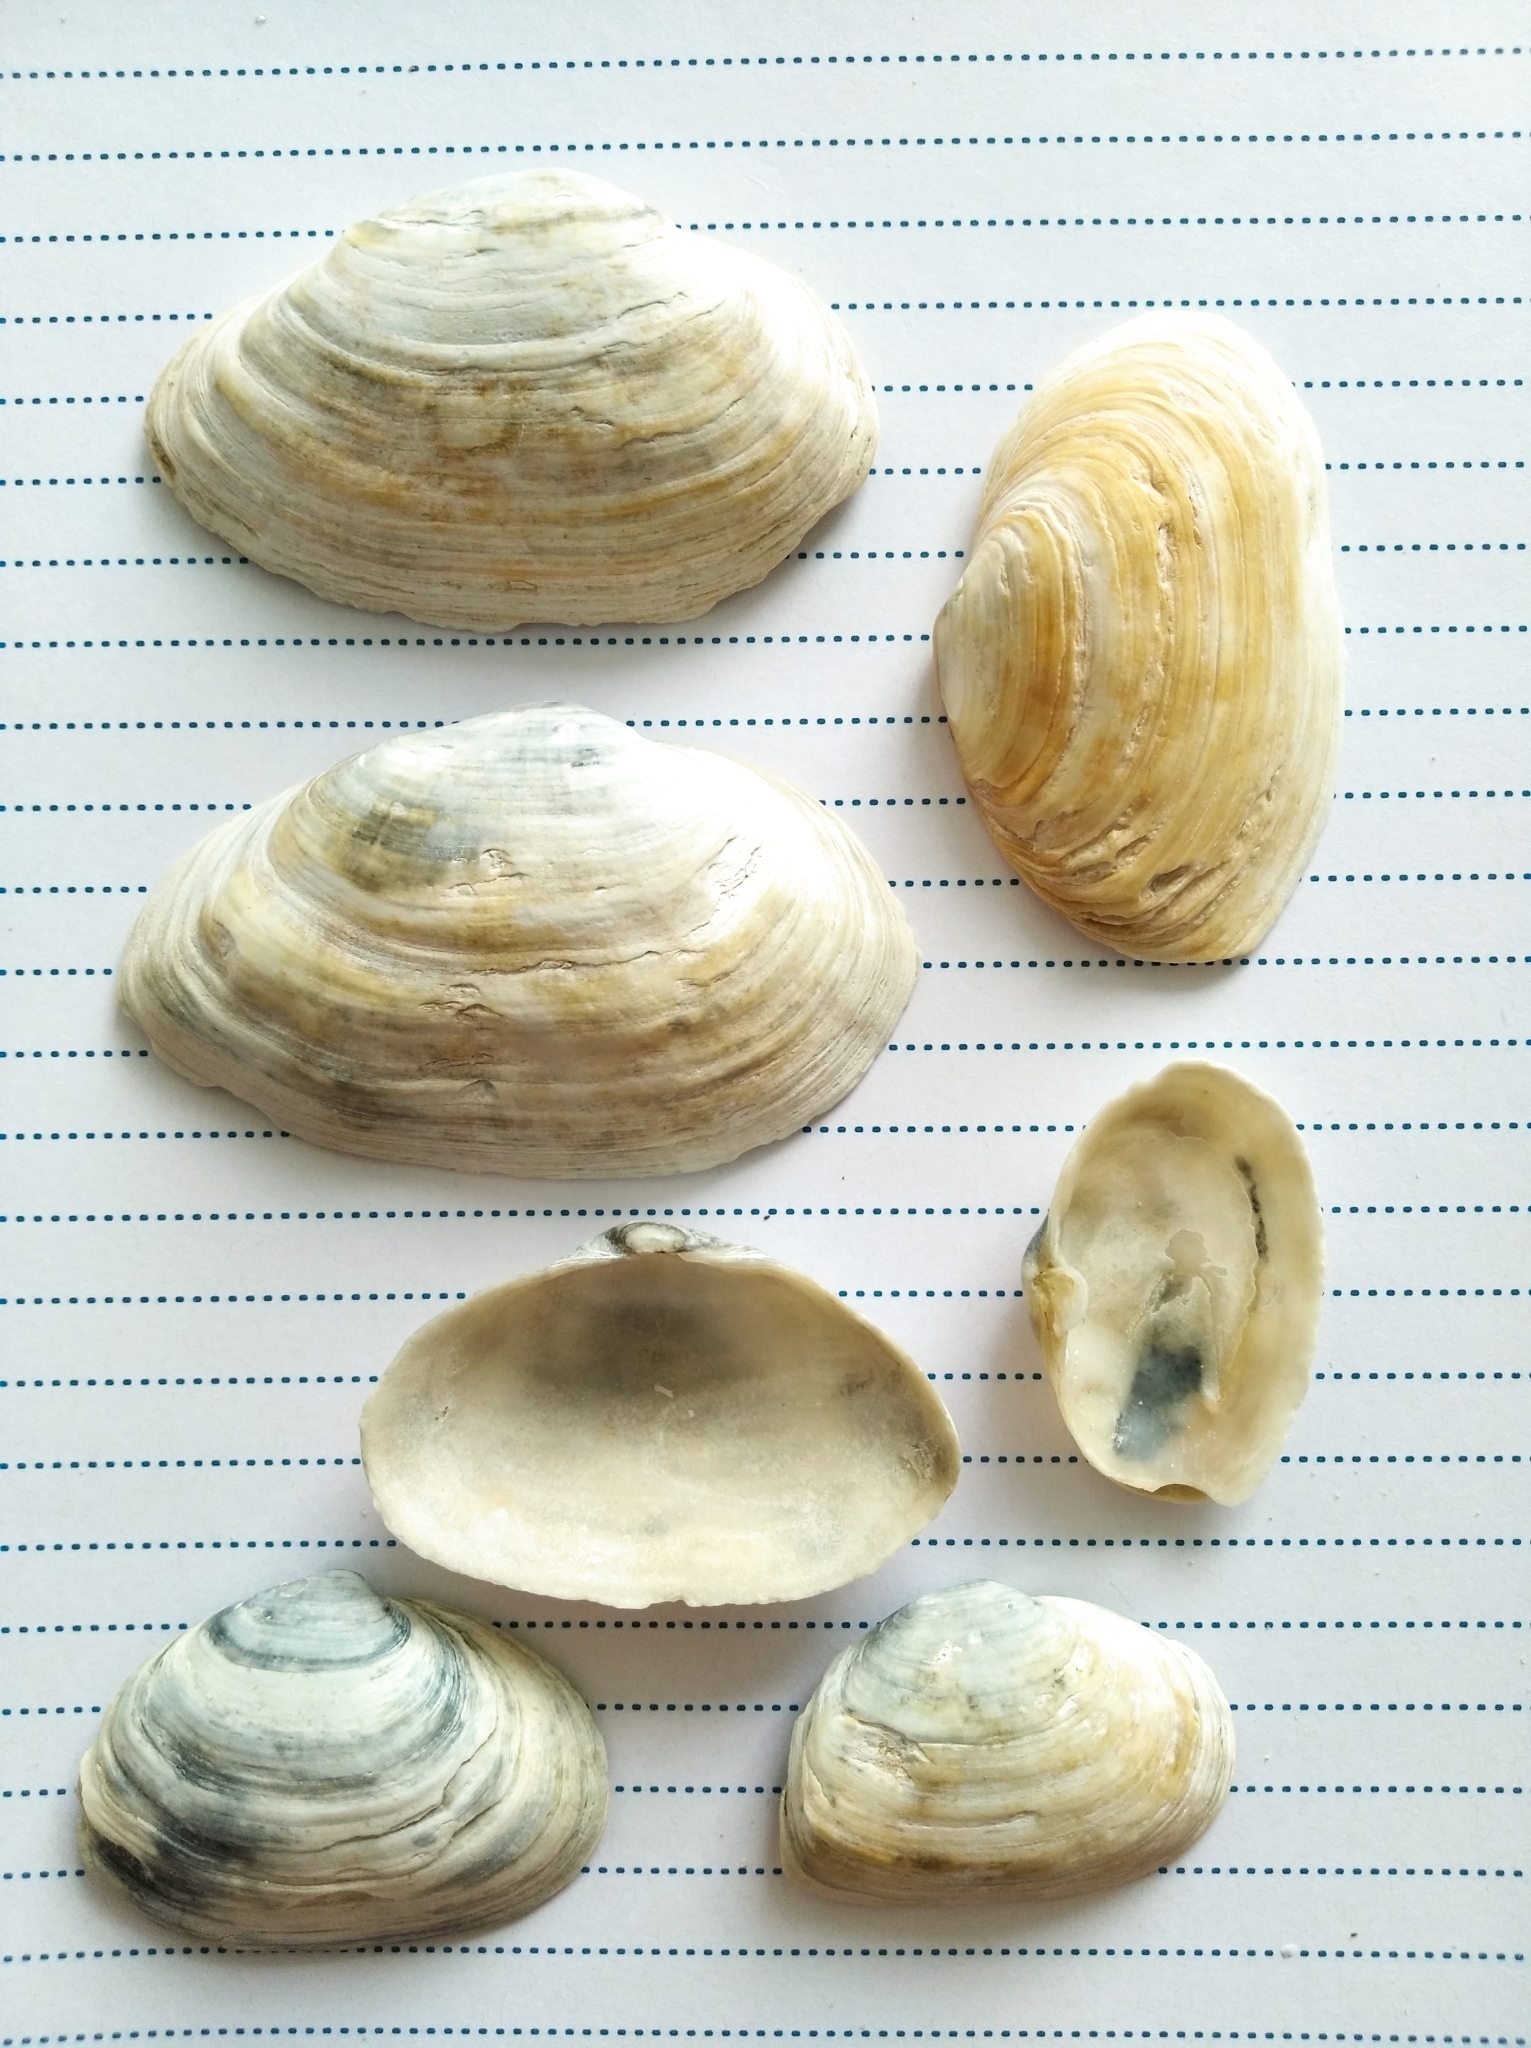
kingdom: Animalia
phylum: Mollusca
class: Bivalvia
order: Myida
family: Myidae
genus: Mya
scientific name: Mya arenaria
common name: Soft-shelled clam
